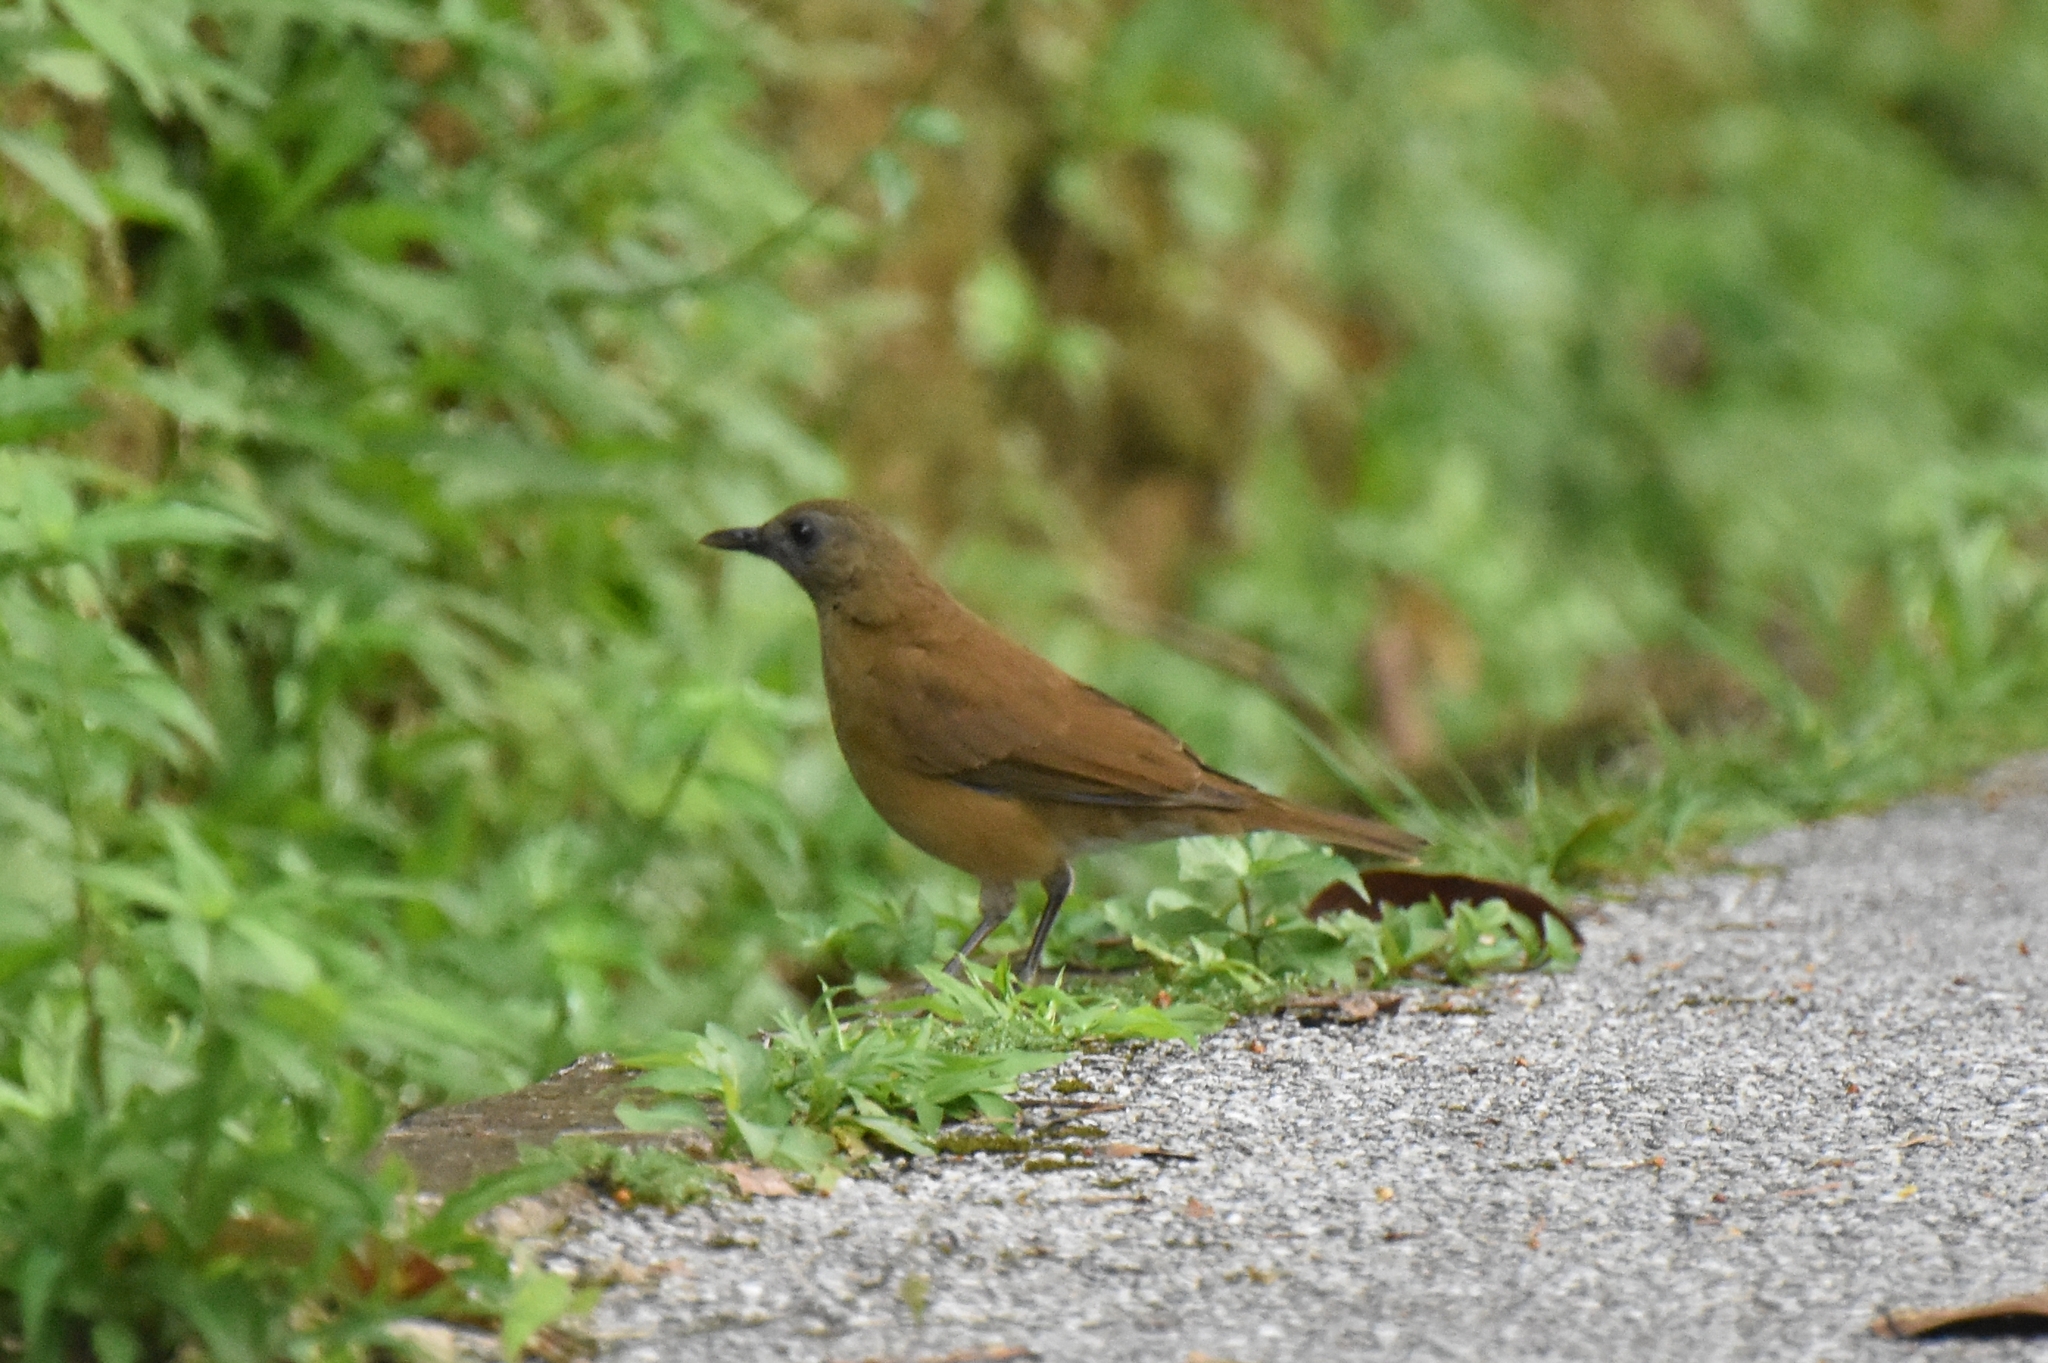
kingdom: Animalia
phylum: Chordata
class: Aves
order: Passeriformes
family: Turdidae
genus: Turdus
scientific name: Turdus fumigatus
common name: Cocoa thrush
